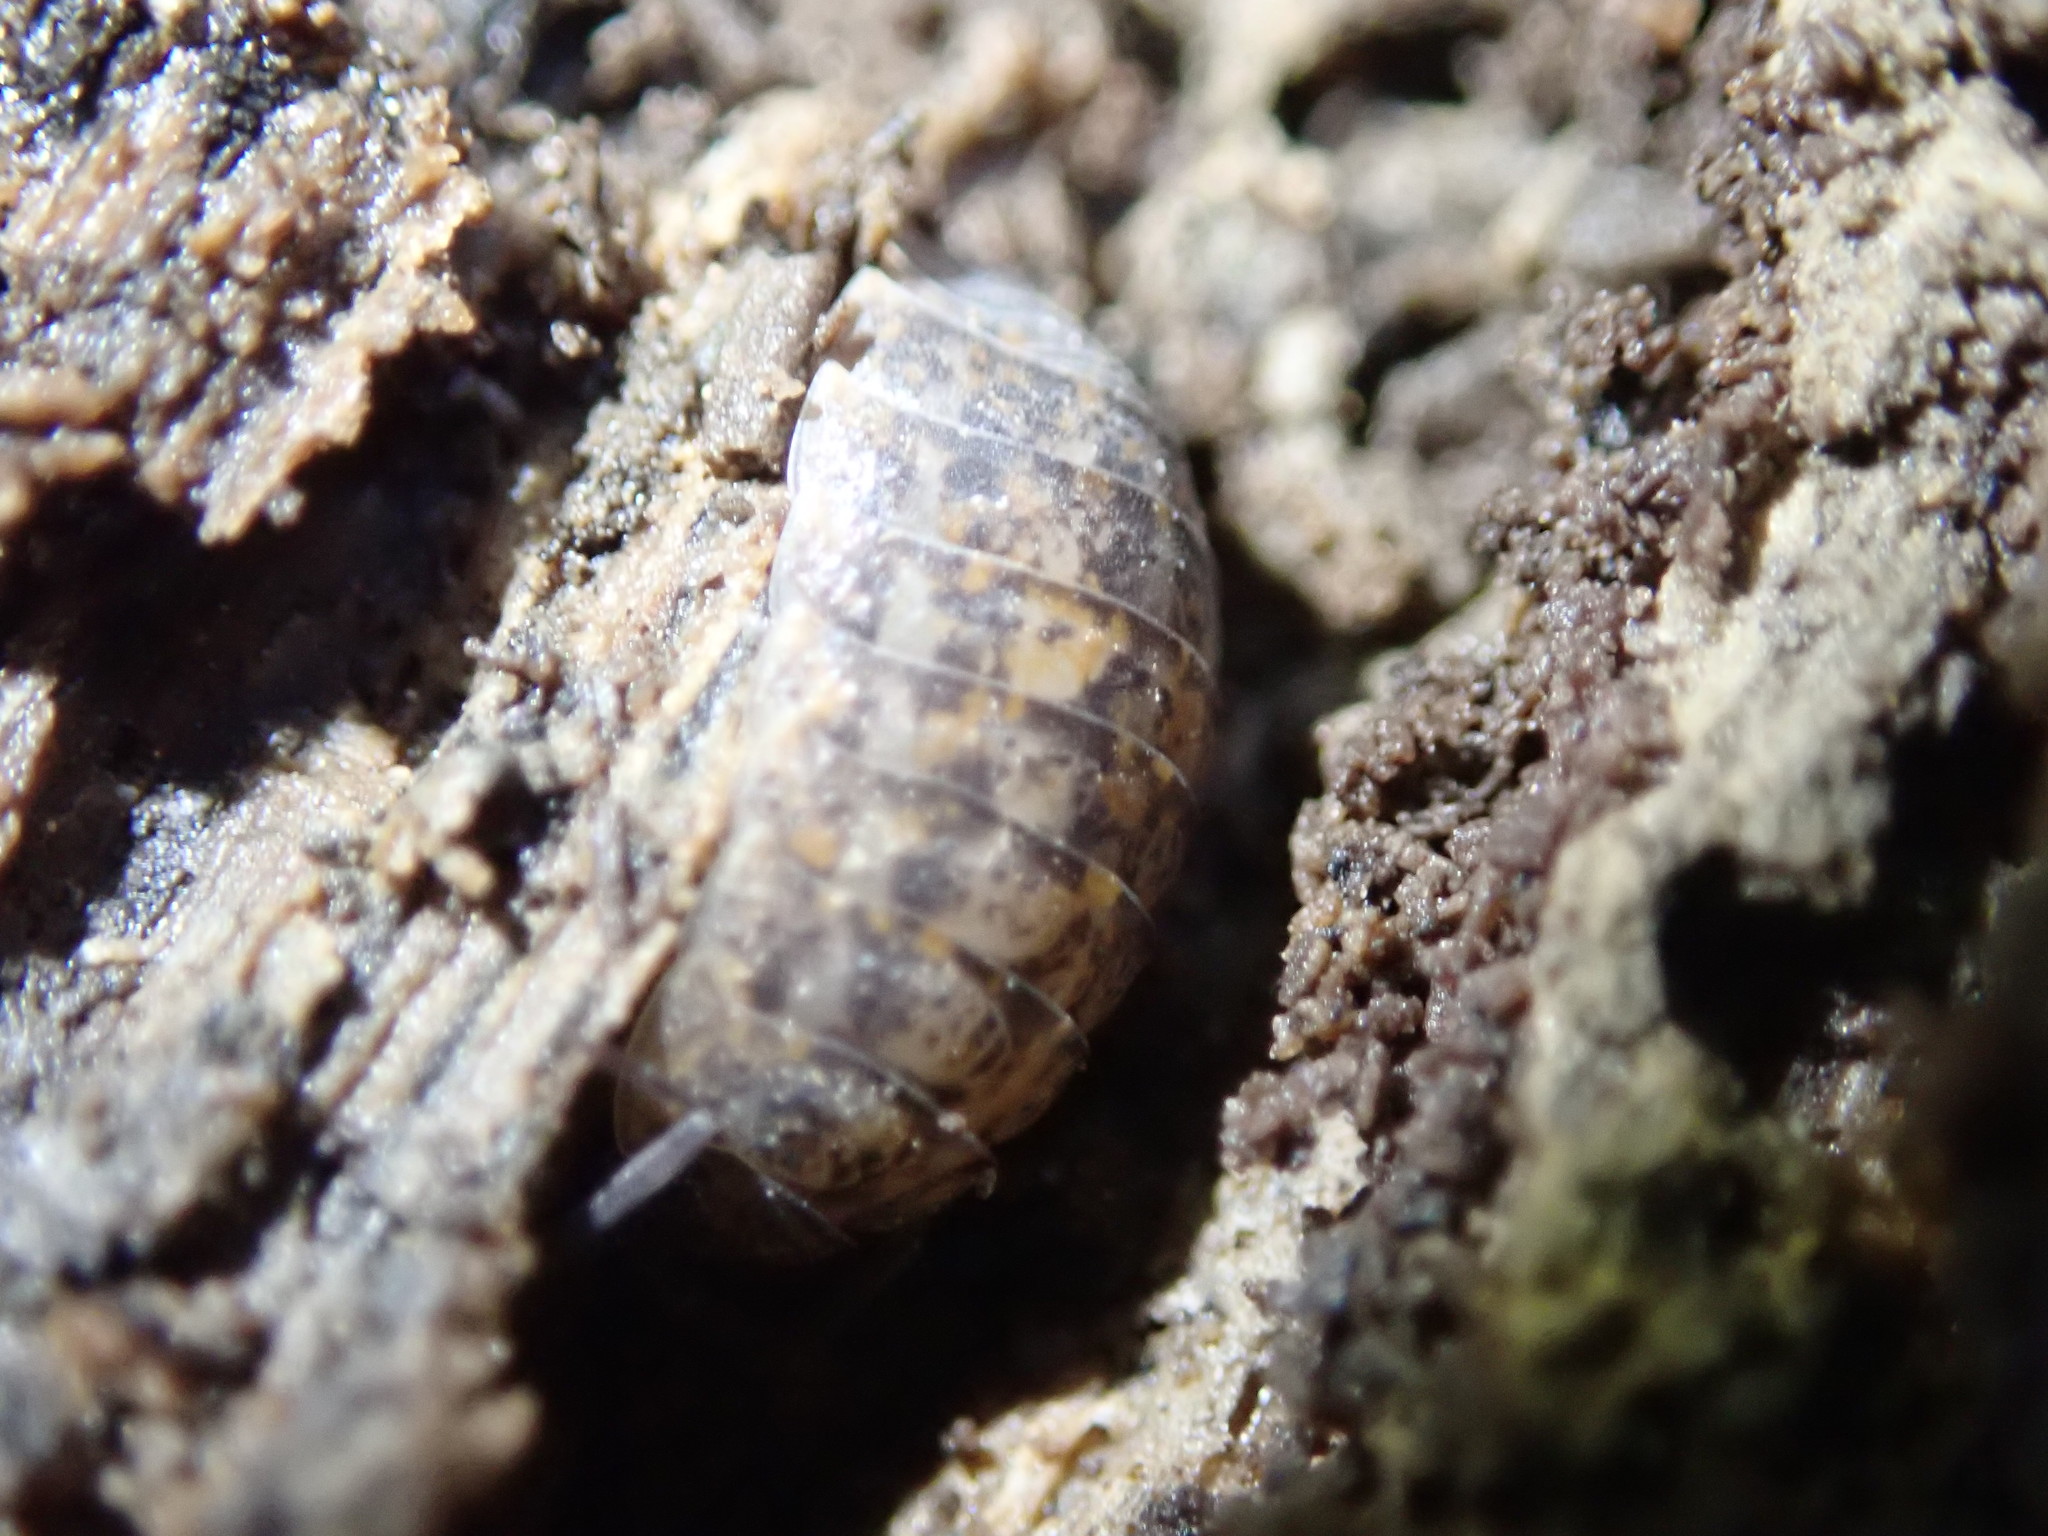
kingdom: Animalia
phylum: Arthropoda
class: Malacostraca
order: Isopoda
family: Trachelipodidae
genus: Trachelipus
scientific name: Trachelipus rathkii
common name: Isopod
